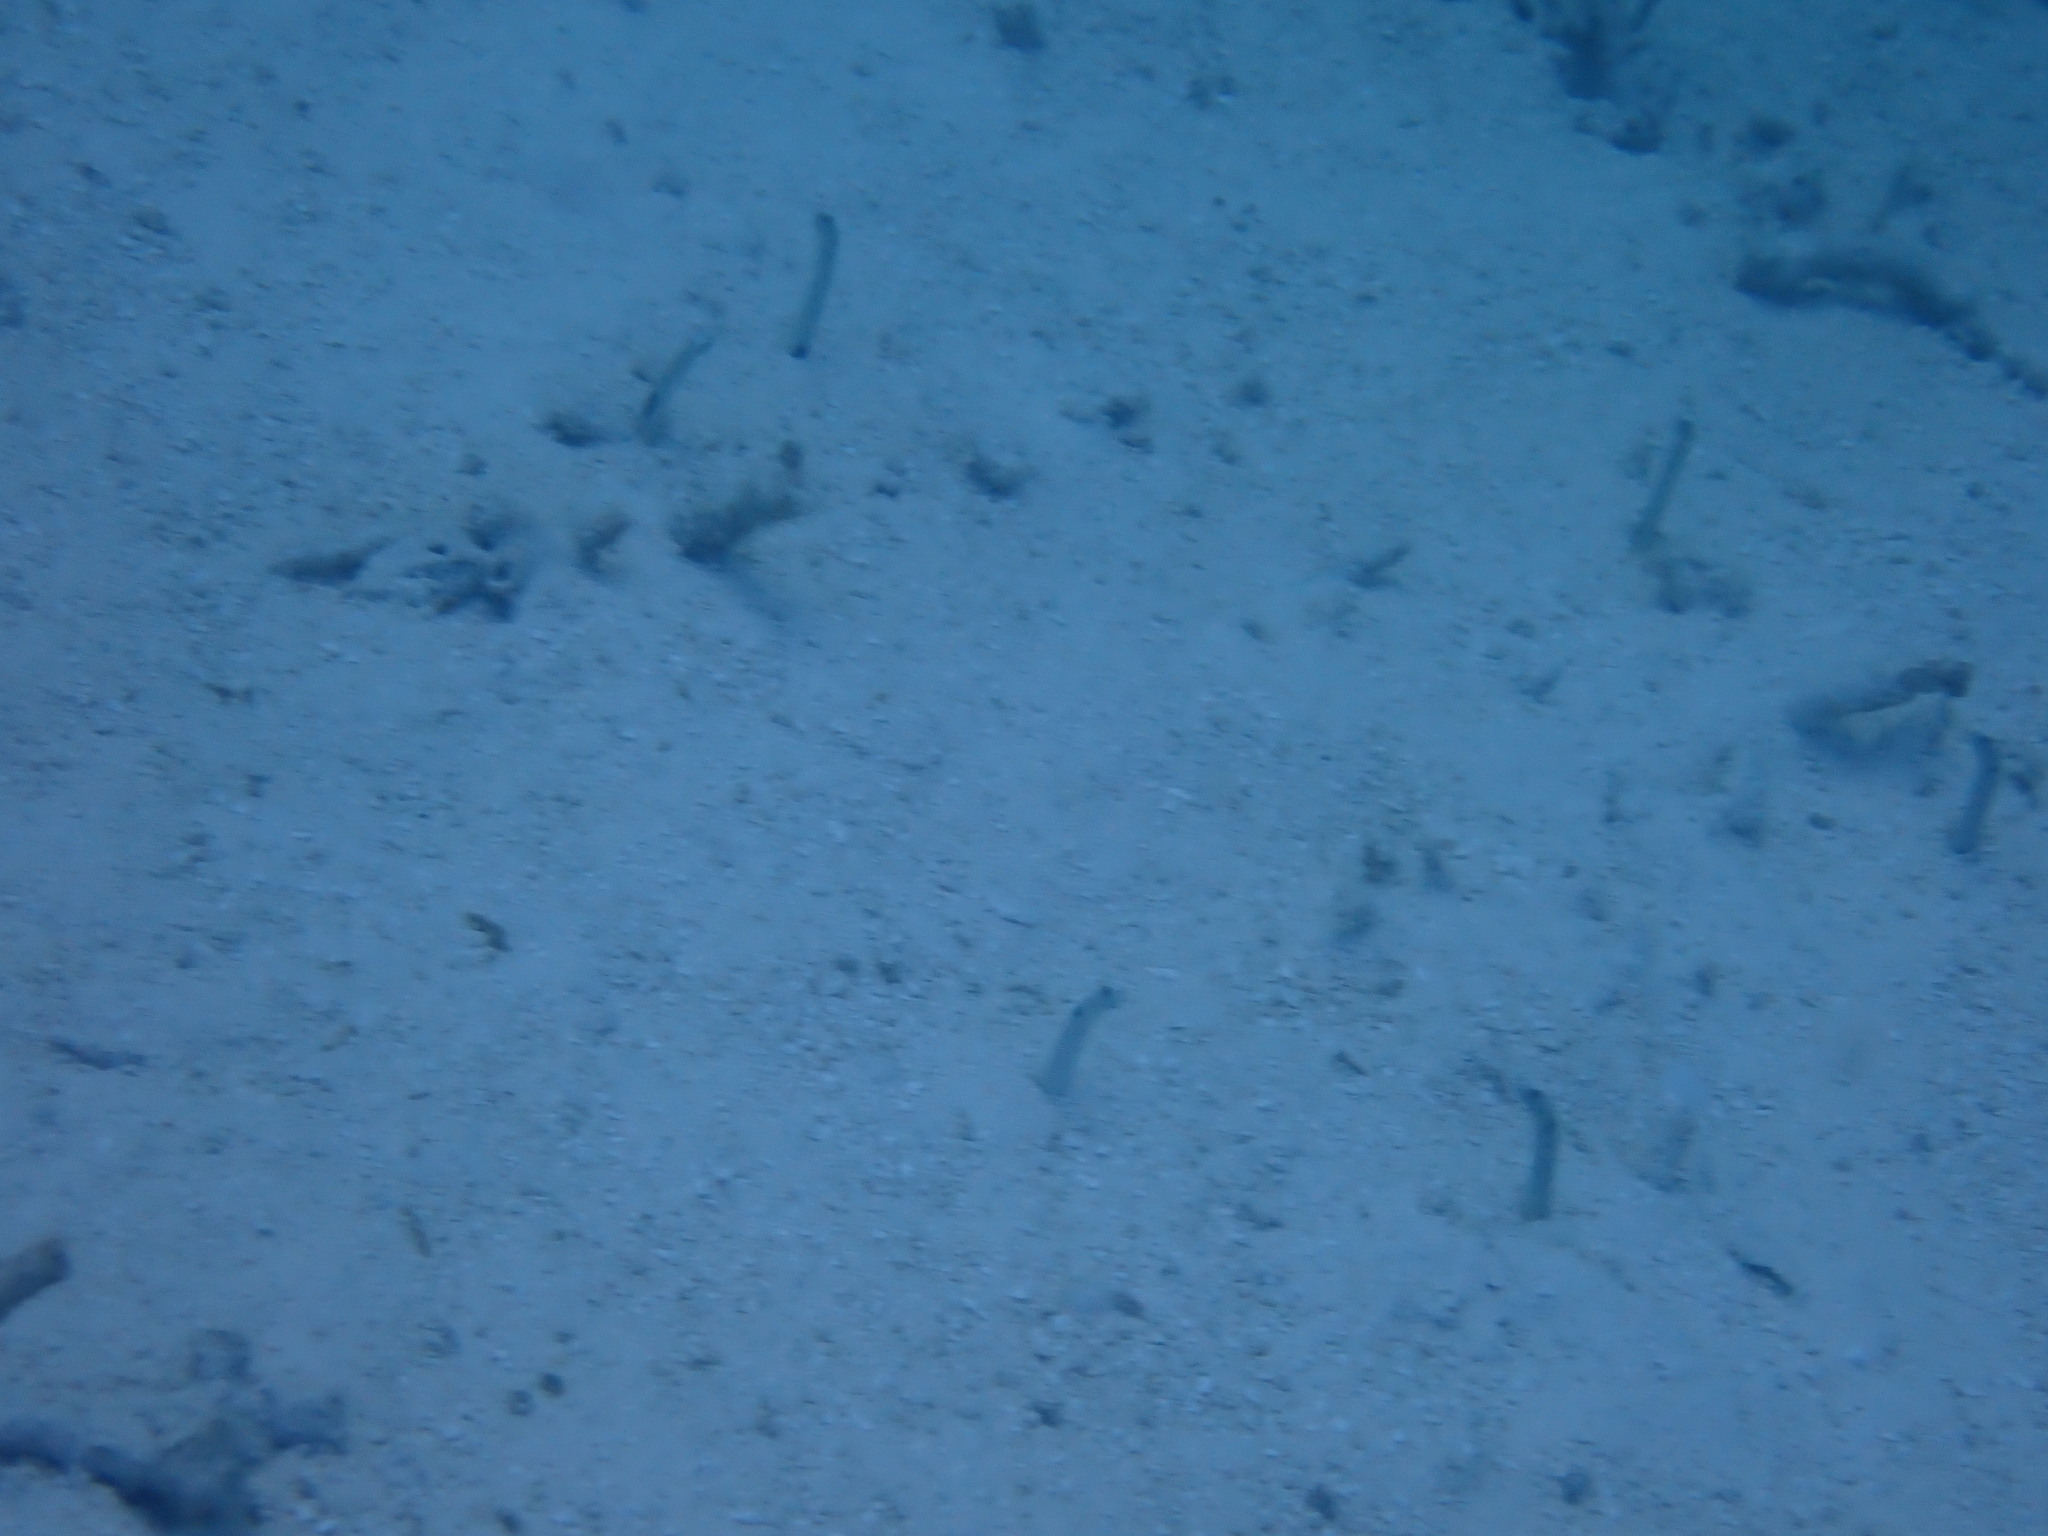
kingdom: Animalia
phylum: Chordata
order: Anguilliformes
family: Congridae
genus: Heteroconger
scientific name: Heteroconger hassi
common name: Spotted garden eel
